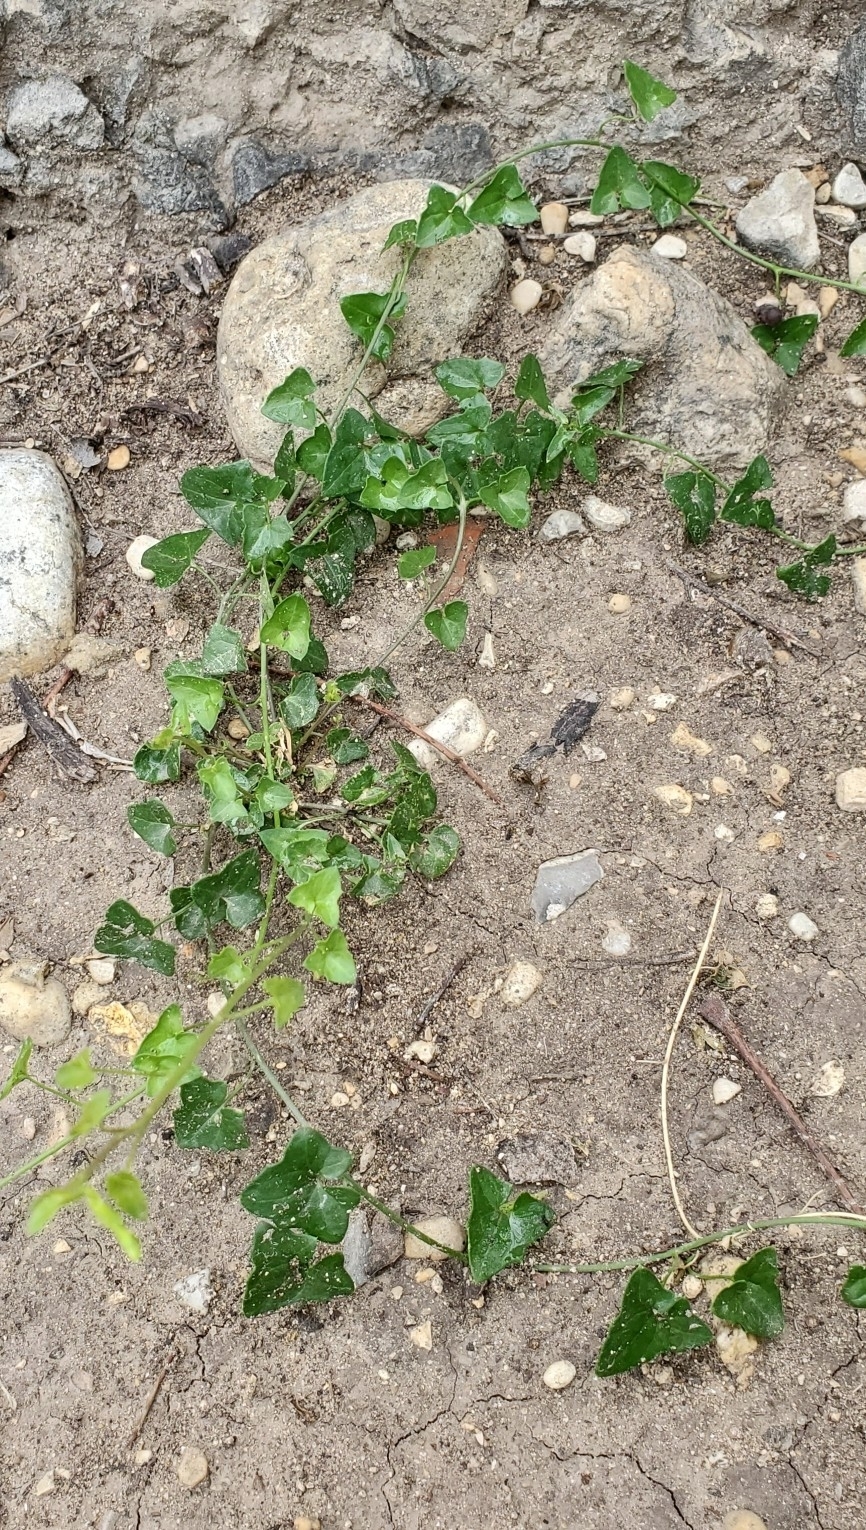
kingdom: Plantae
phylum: Tracheophyta
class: Magnoliopsida
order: Lamiales
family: Plantaginaceae
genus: Maurandella
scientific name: Maurandella antirrhiniflora
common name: Violet twining-snapdragon
